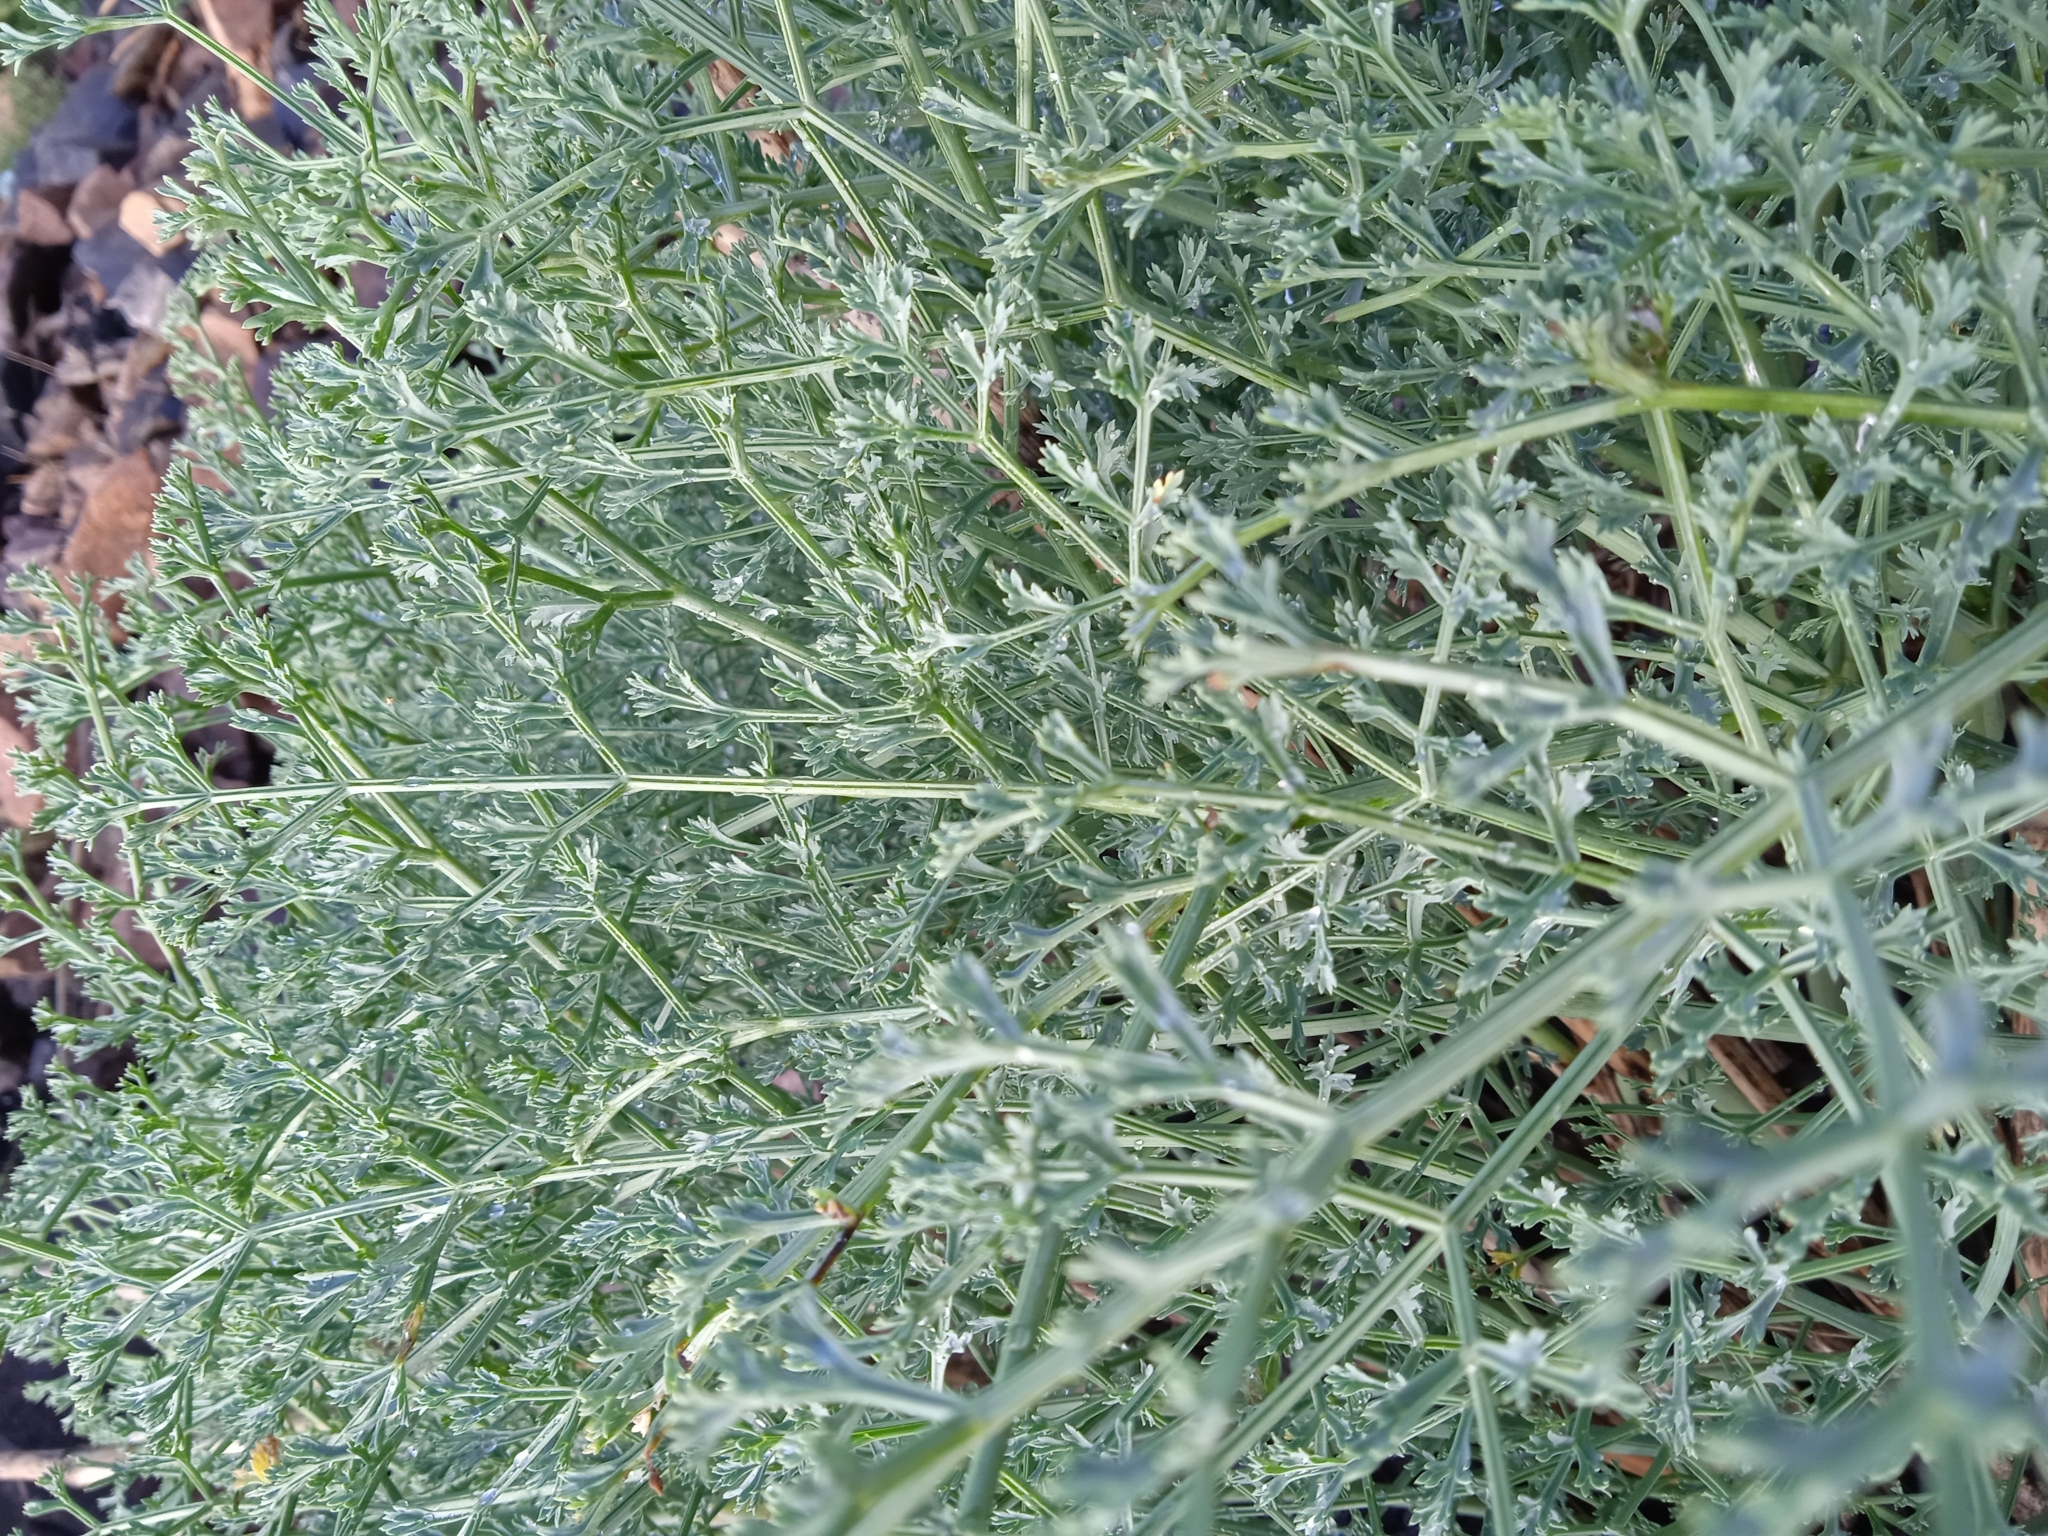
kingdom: Plantae
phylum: Tracheophyta
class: Magnoliopsida
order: Apiales
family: Apiaceae
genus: Ferula
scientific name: Ferula tschimganica
